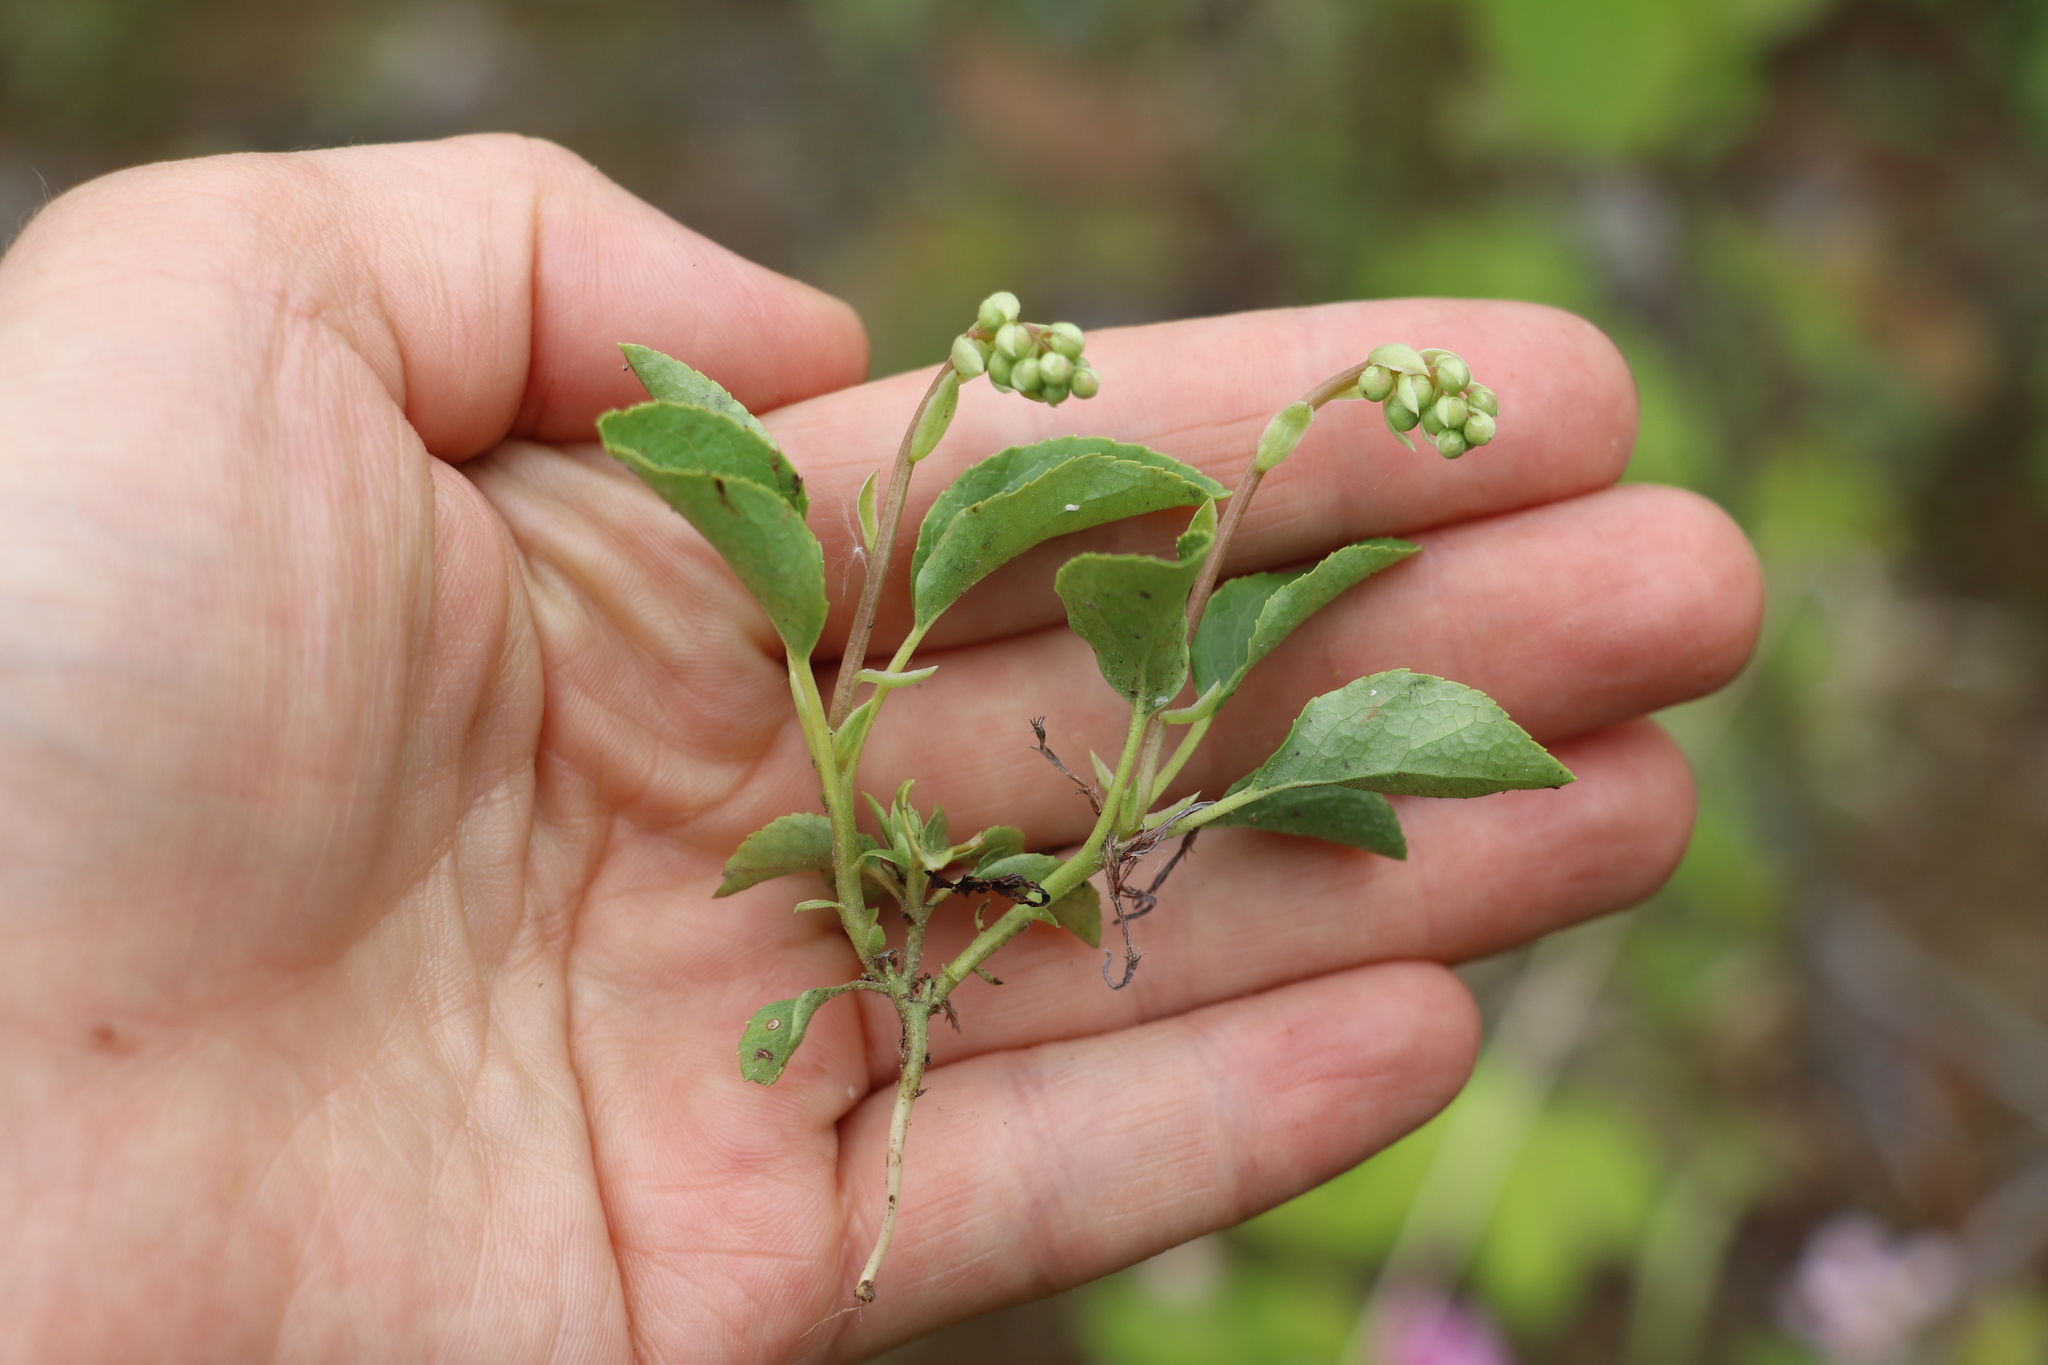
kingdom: Plantae
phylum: Tracheophyta
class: Magnoliopsida
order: Ericales
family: Ericaceae
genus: Orthilia
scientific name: Orthilia secunda
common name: One-sided orthilia
